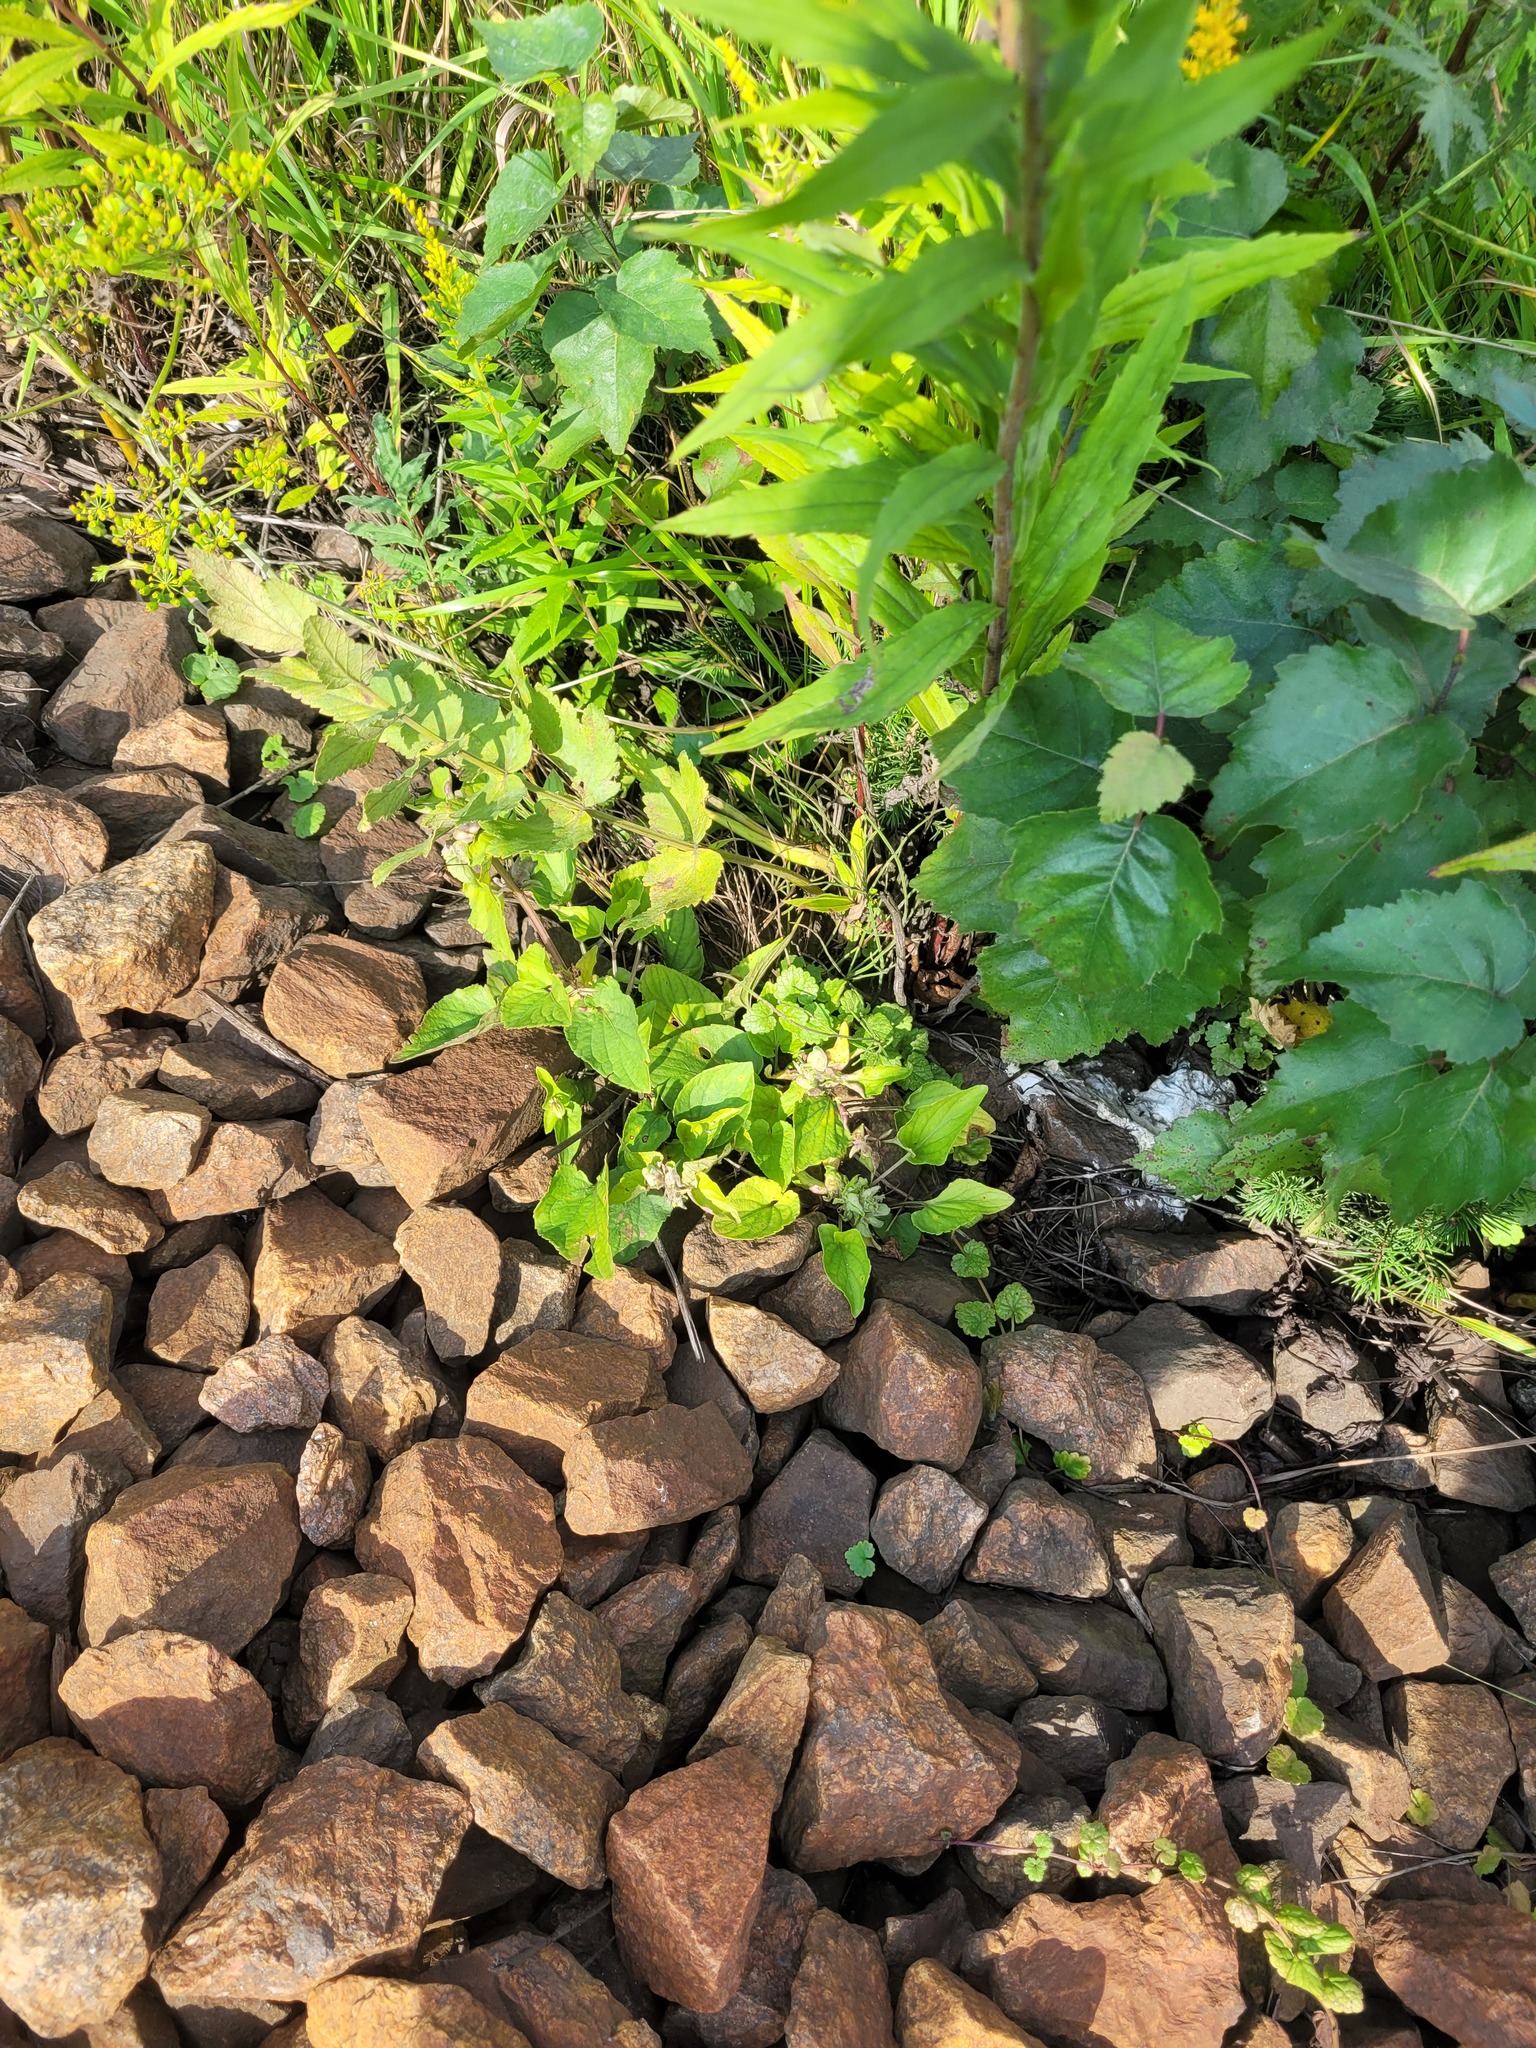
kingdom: Plantae
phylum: Tracheophyta
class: Magnoliopsida
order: Malpighiales
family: Violaceae
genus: Viola
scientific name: Viola canina
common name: Heath dog-violet
